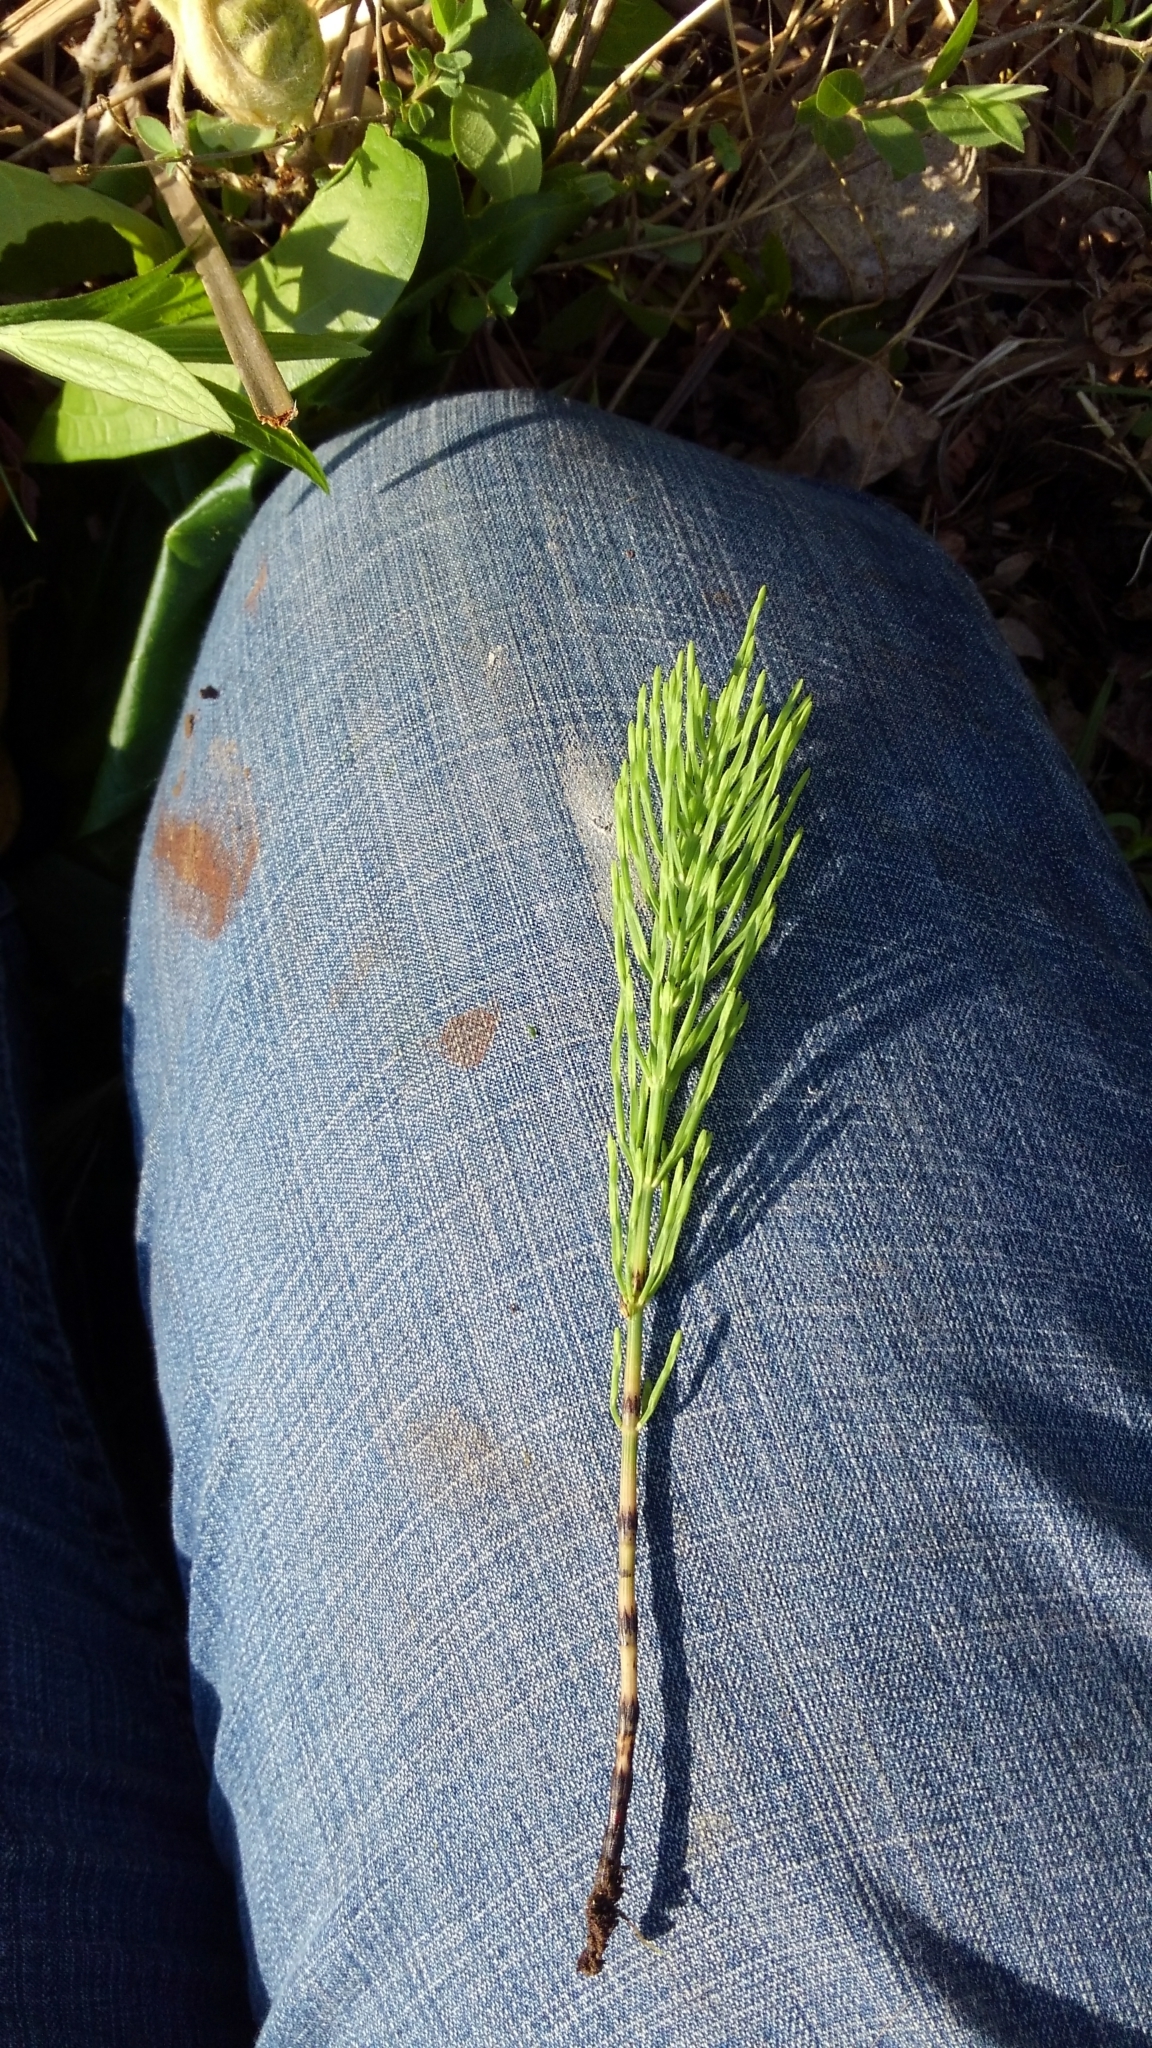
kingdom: Plantae
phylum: Tracheophyta
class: Polypodiopsida
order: Equisetales
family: Equisetaceae
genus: Equisetum
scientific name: Equisetum arvense
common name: Field horsetail
